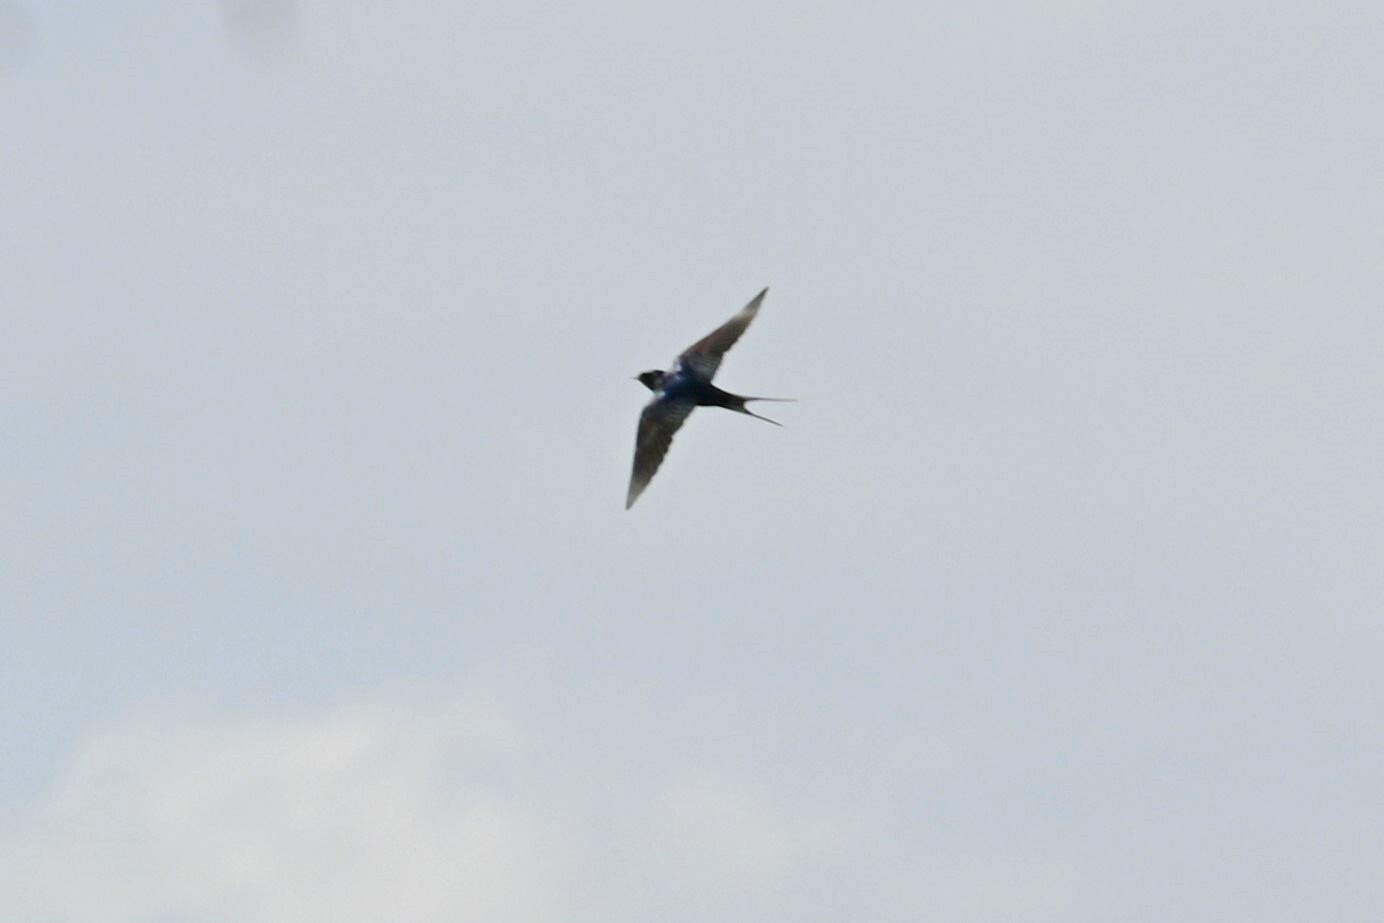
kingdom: Animalia
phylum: Chordata
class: Aves
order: Passeriformes
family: Hirundinidae
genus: Hirundo
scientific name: Hirundo rustica
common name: Barn swallow
